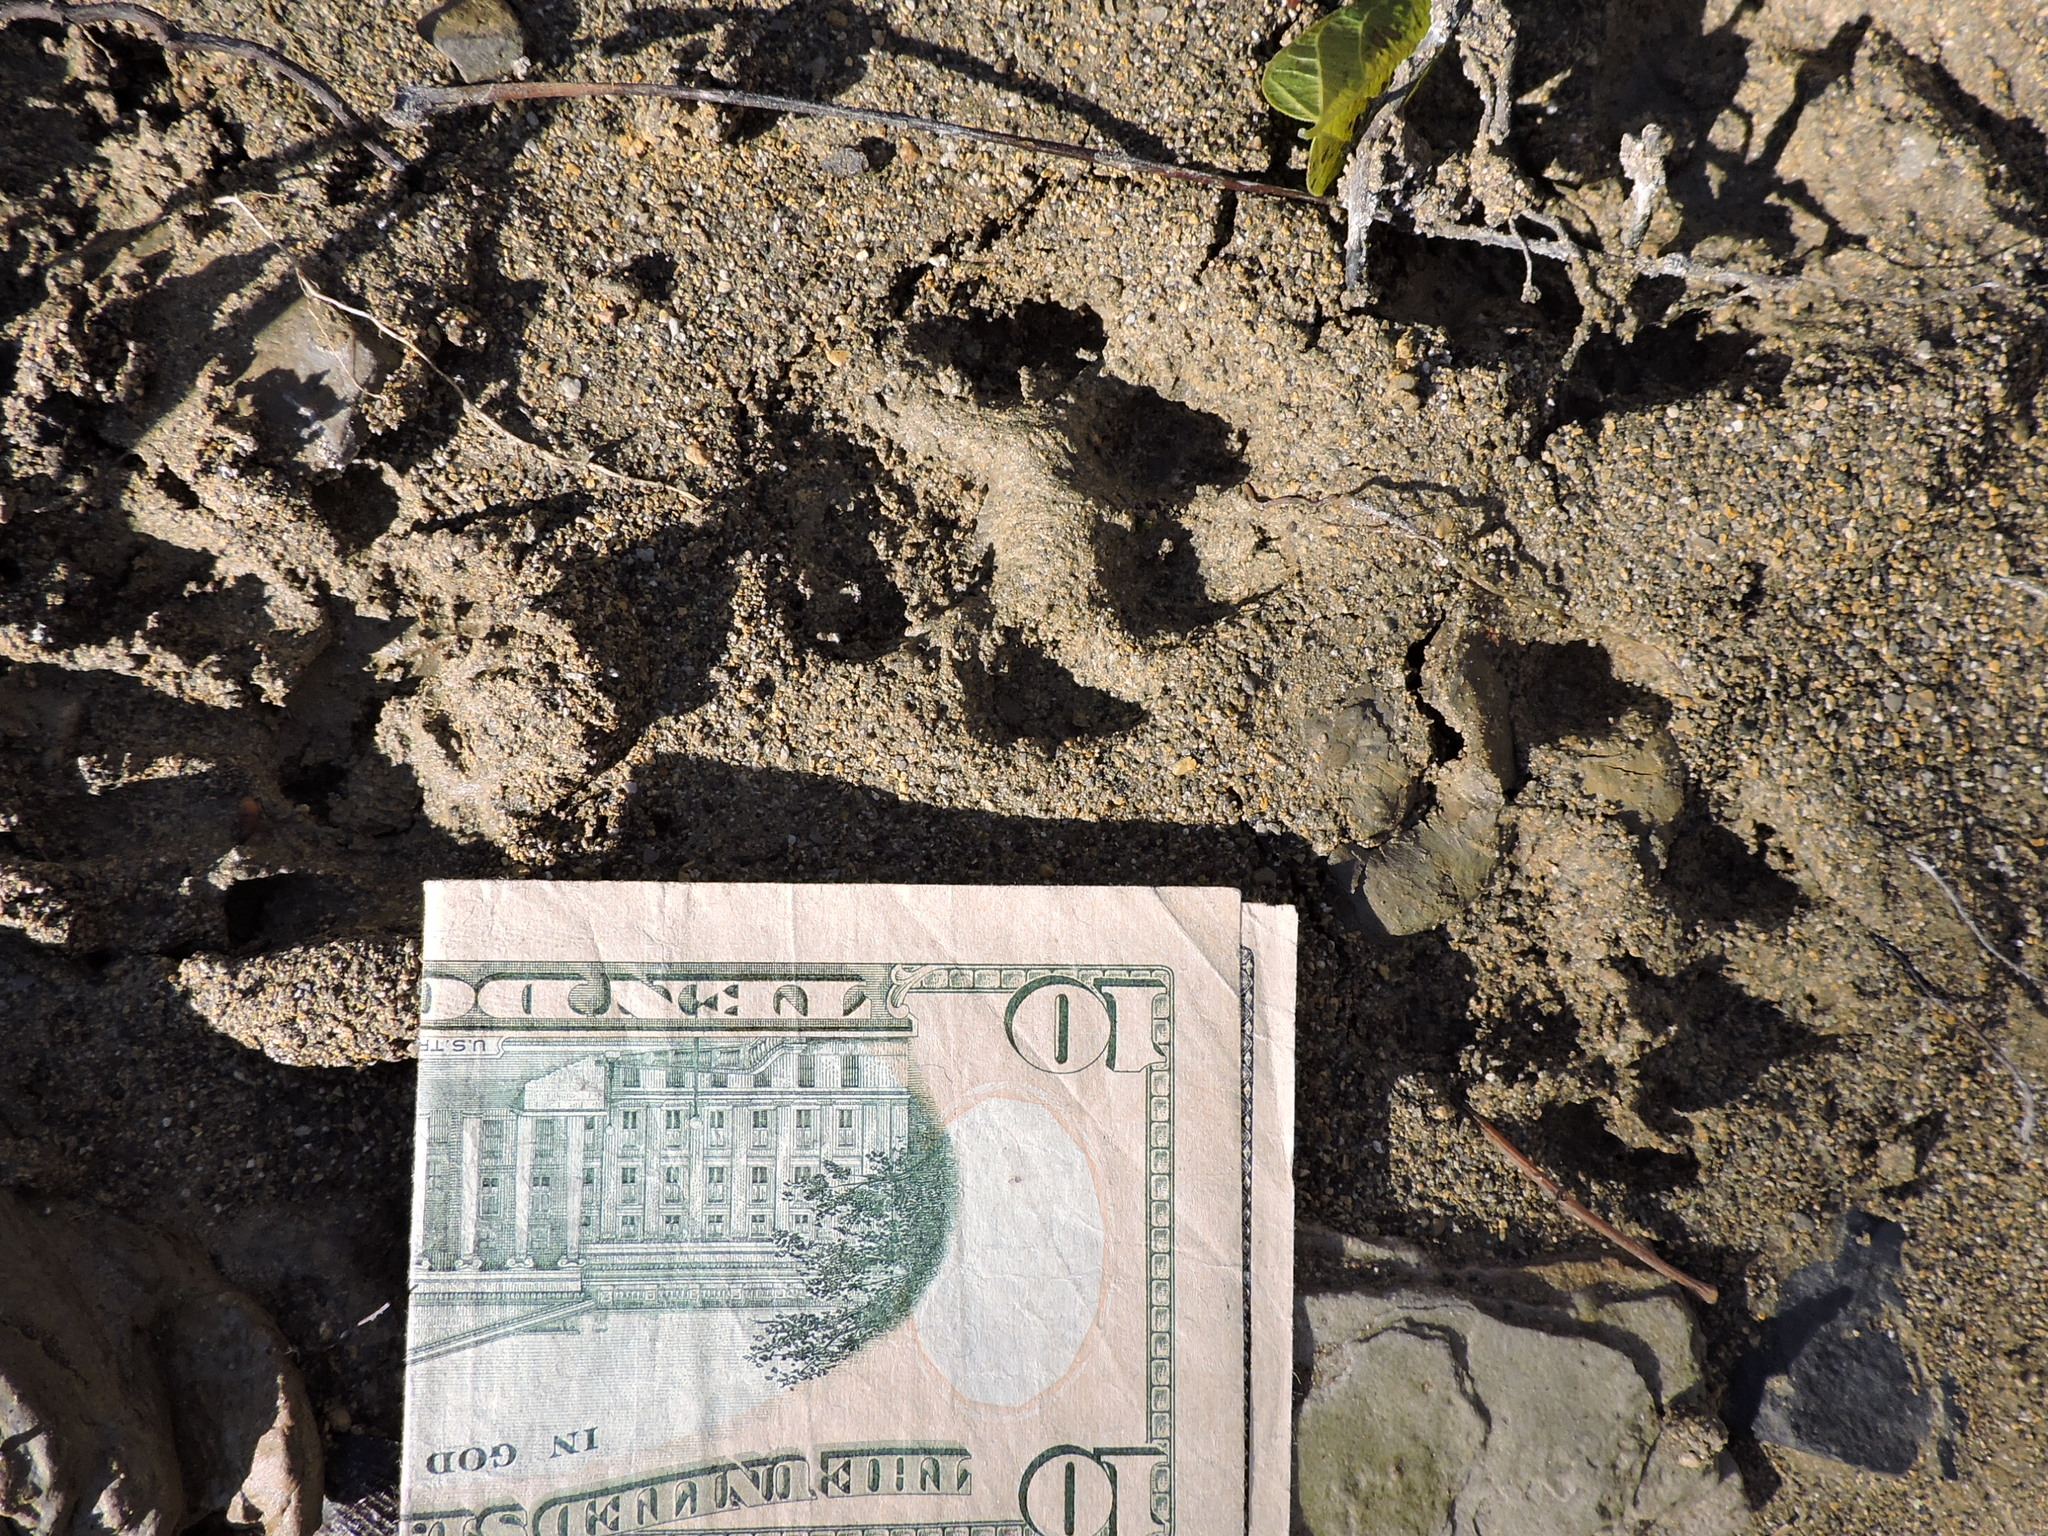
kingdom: Animalia
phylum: Chordata
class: Mammalia
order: Carnivora
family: Felidae
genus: Lynx
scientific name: Lynx rufus
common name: Bobcat
